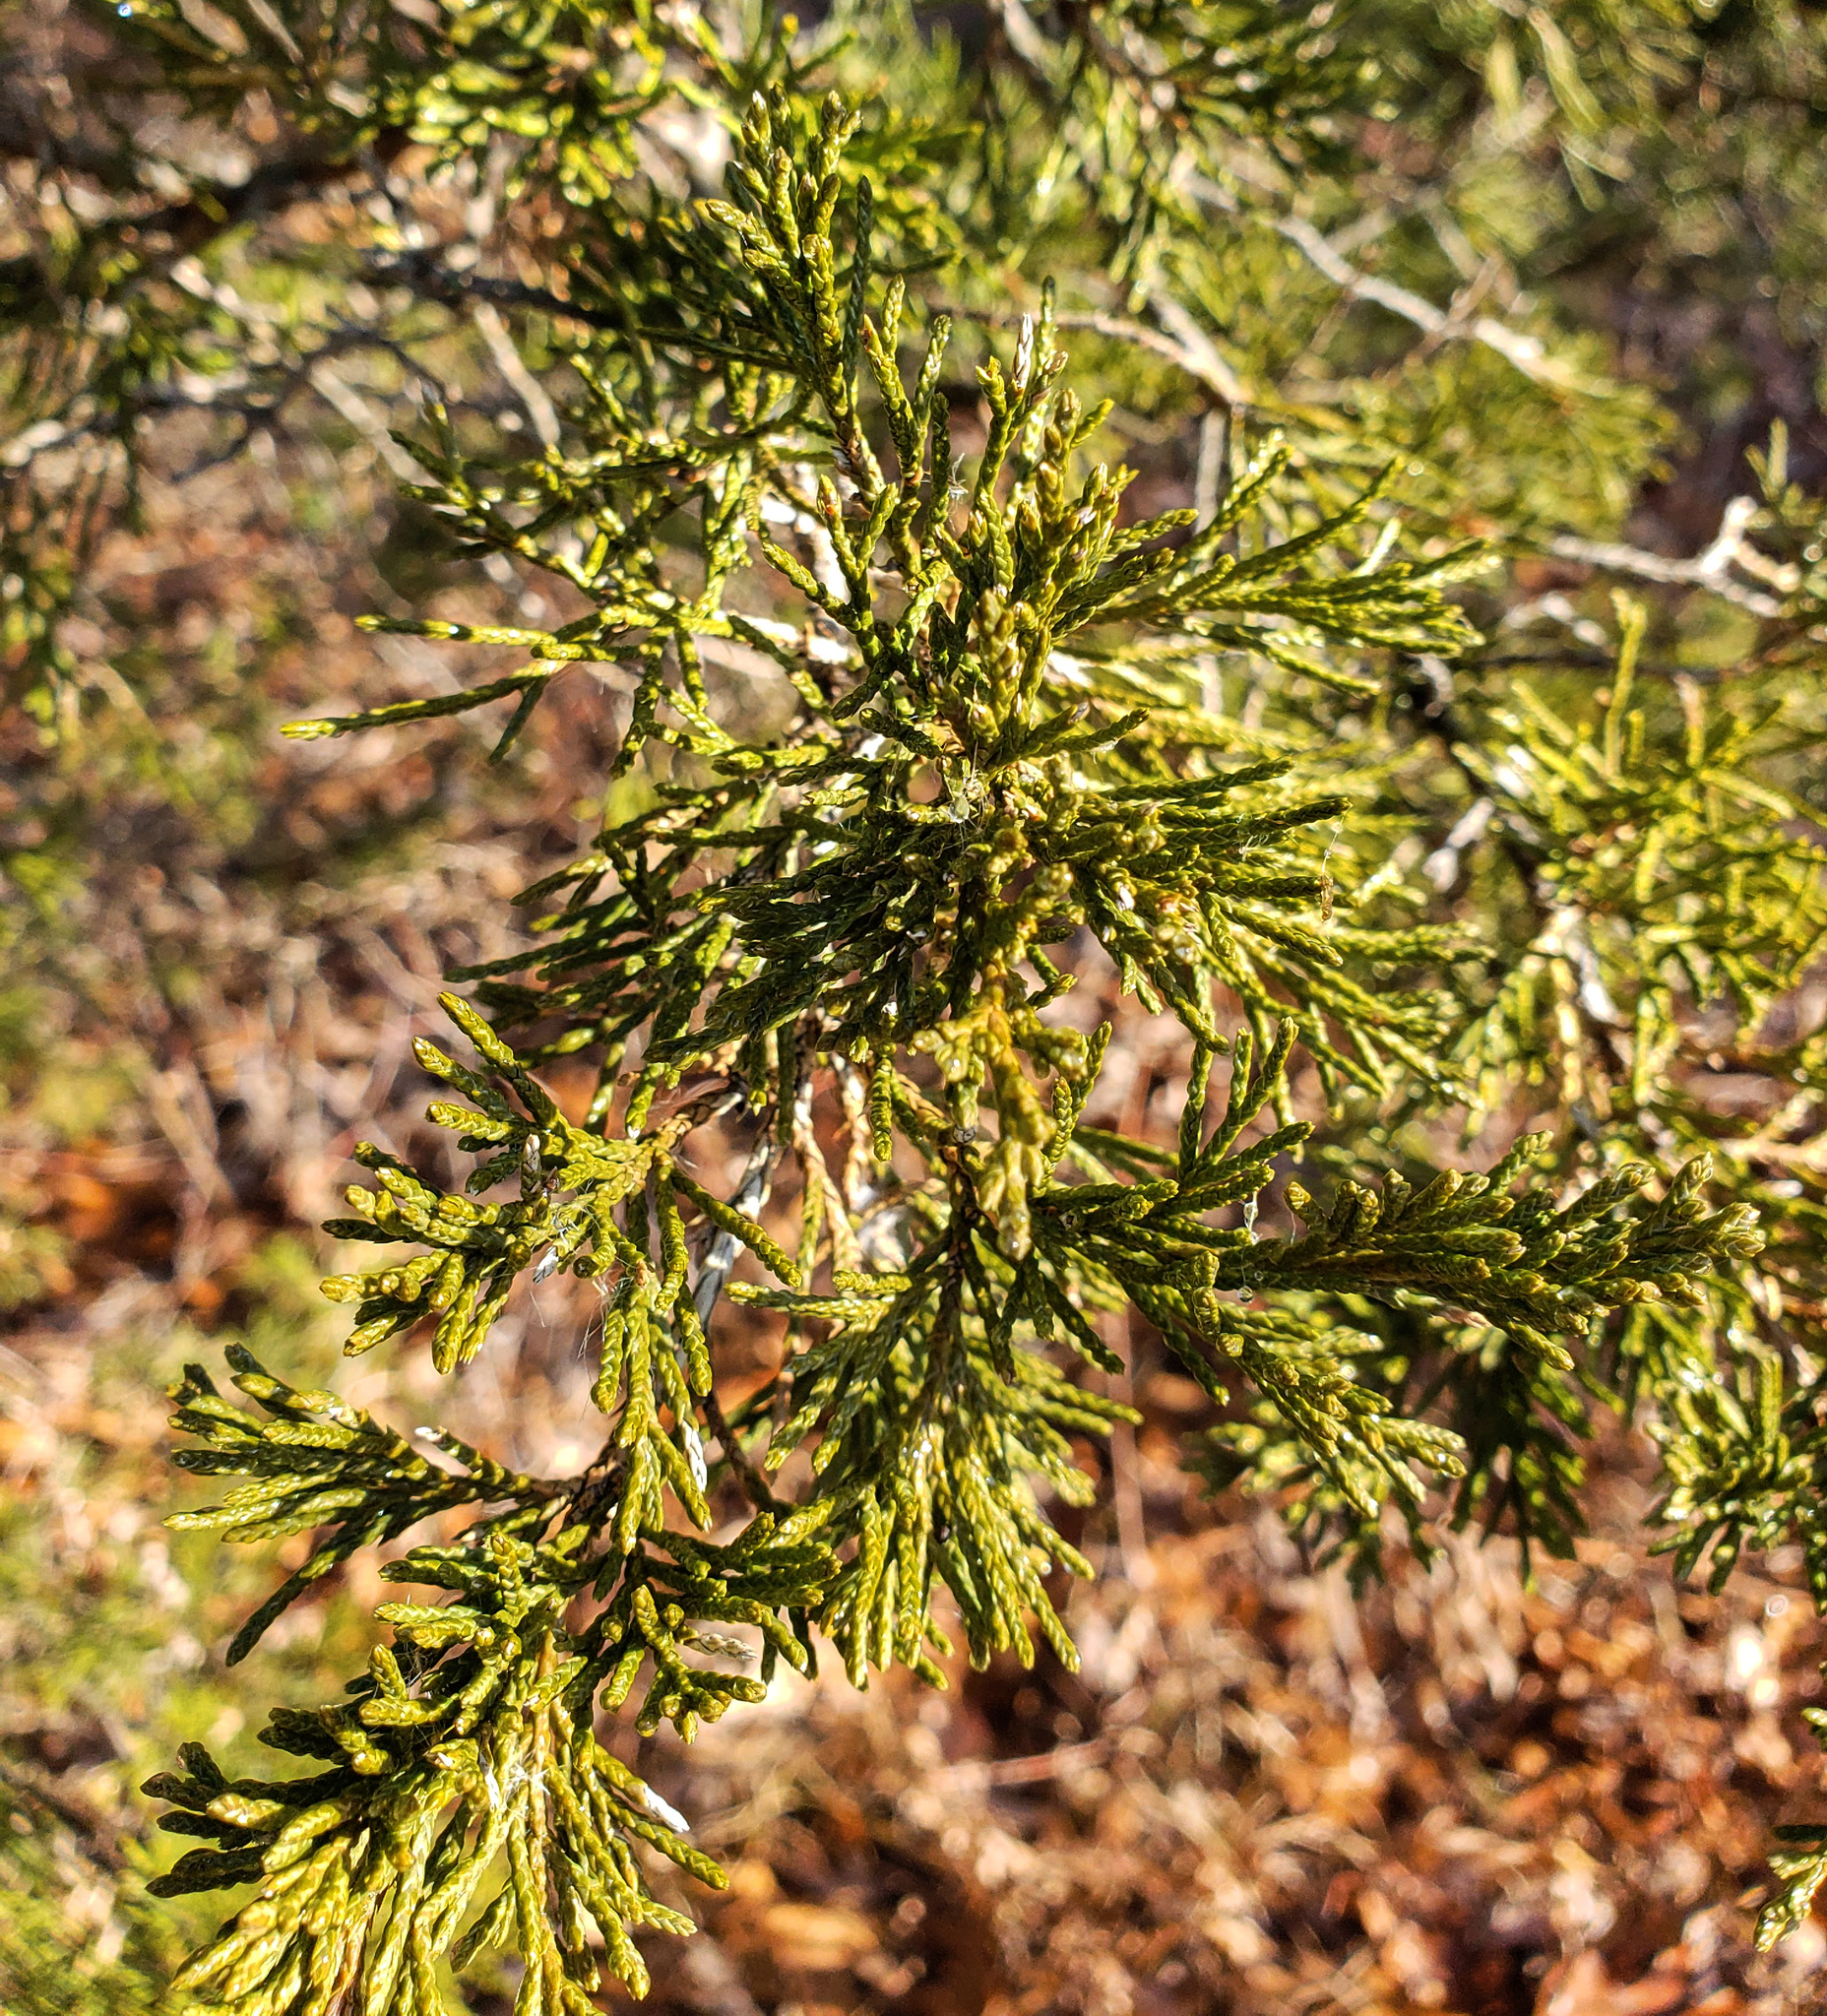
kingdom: Plantae
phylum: Tracheophyta
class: Pinopsida
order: Pinales
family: Cupressaceae
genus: Juniperus
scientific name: Juniperus virginiana
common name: Red juniper
